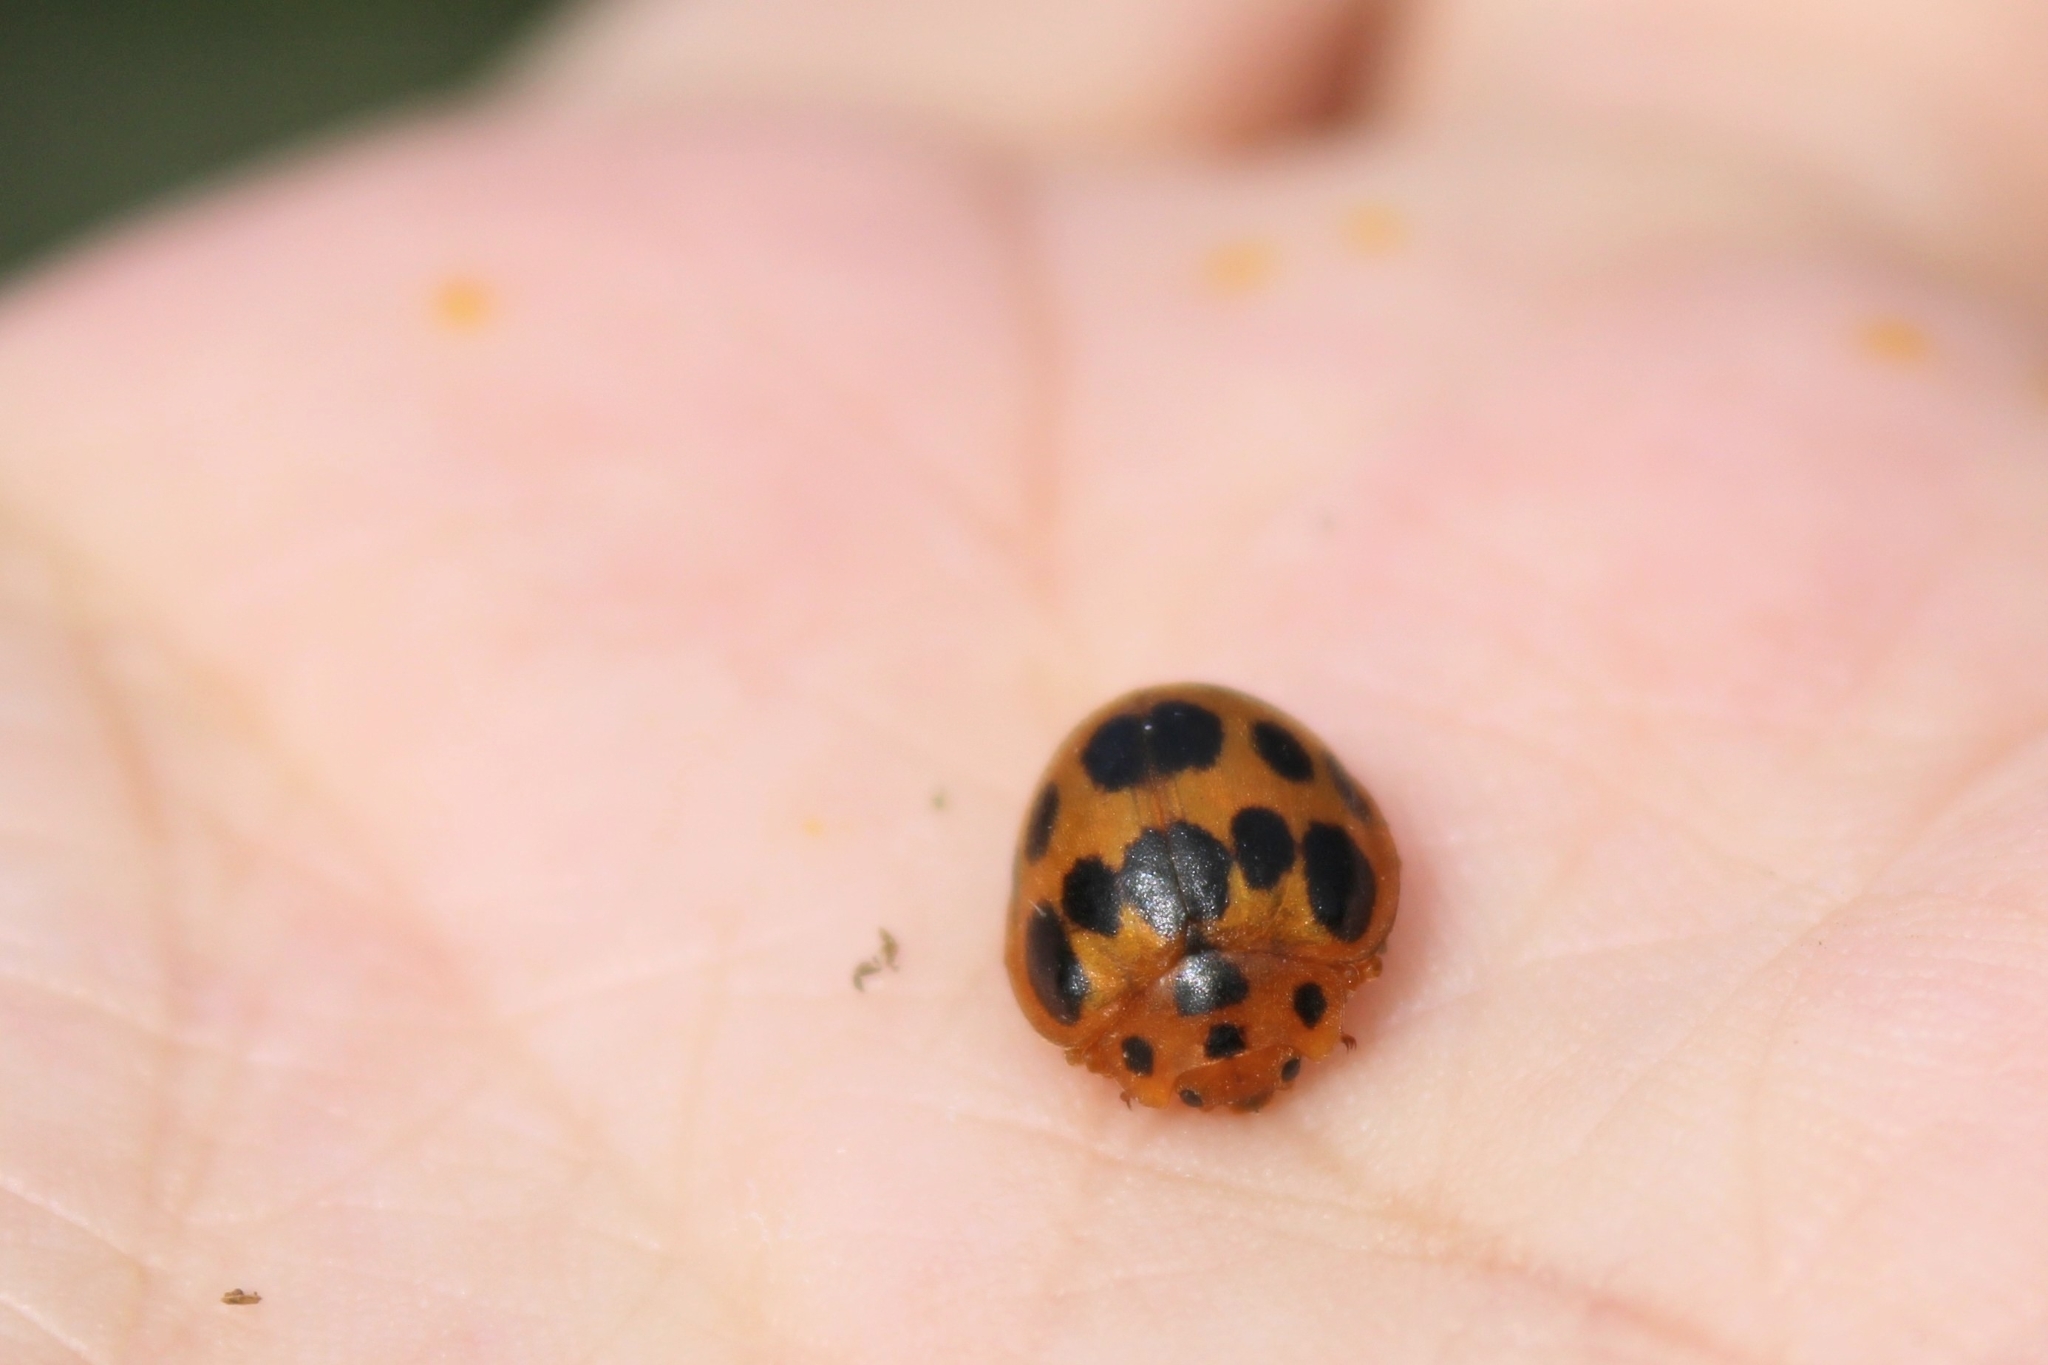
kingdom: Animalia
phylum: Arthropoda
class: Insecta
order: Coleoptera
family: Coccinellidae
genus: Epilachna
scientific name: Epilachna borealis
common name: Squash beetle
